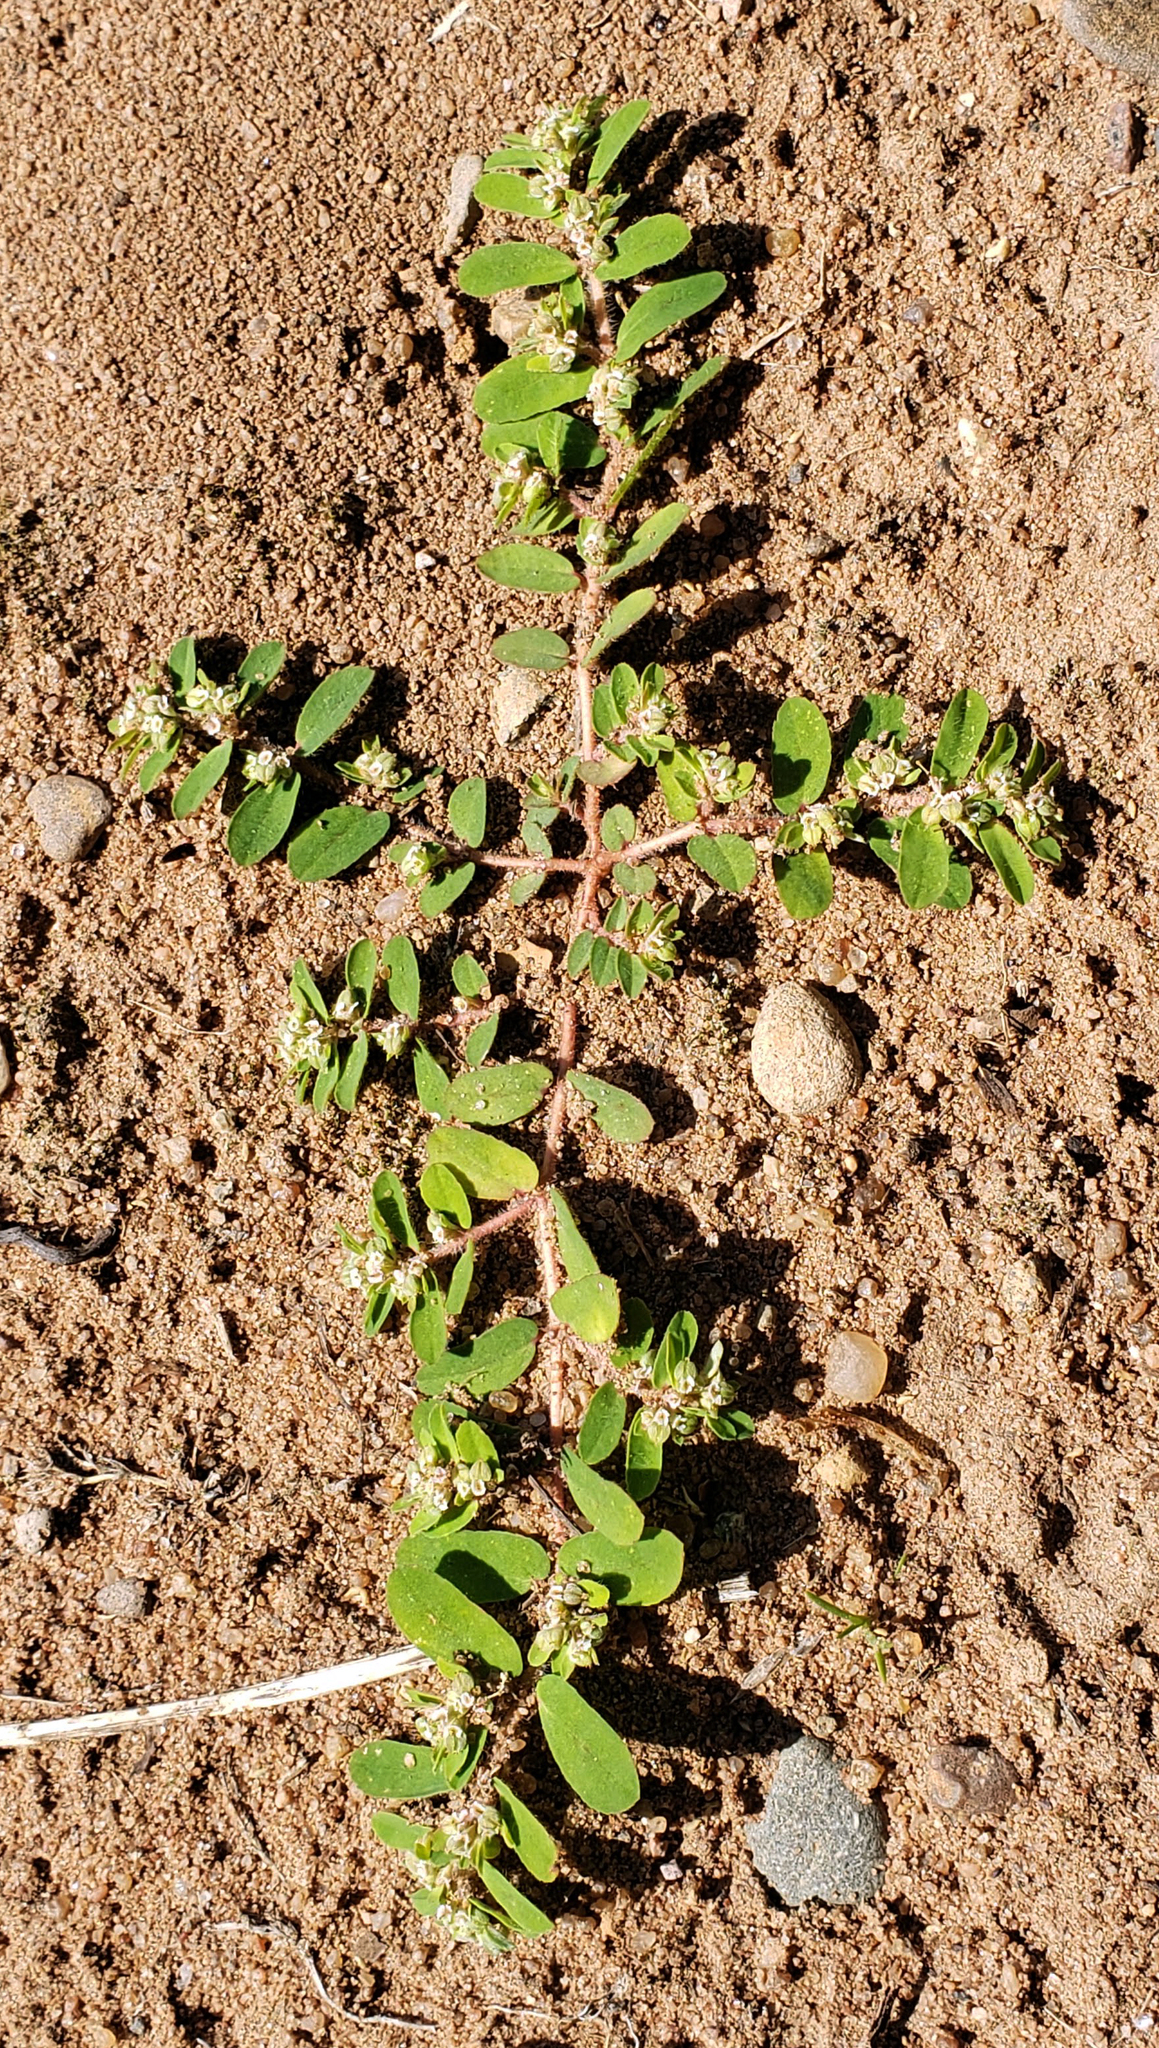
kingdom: Plantae
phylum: Tracheophyta
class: Magnoliopsida
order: Malpighiales
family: Euphorbiaceae
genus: Euphorbia
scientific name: Euphorbia maculata
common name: Spotted spurge
